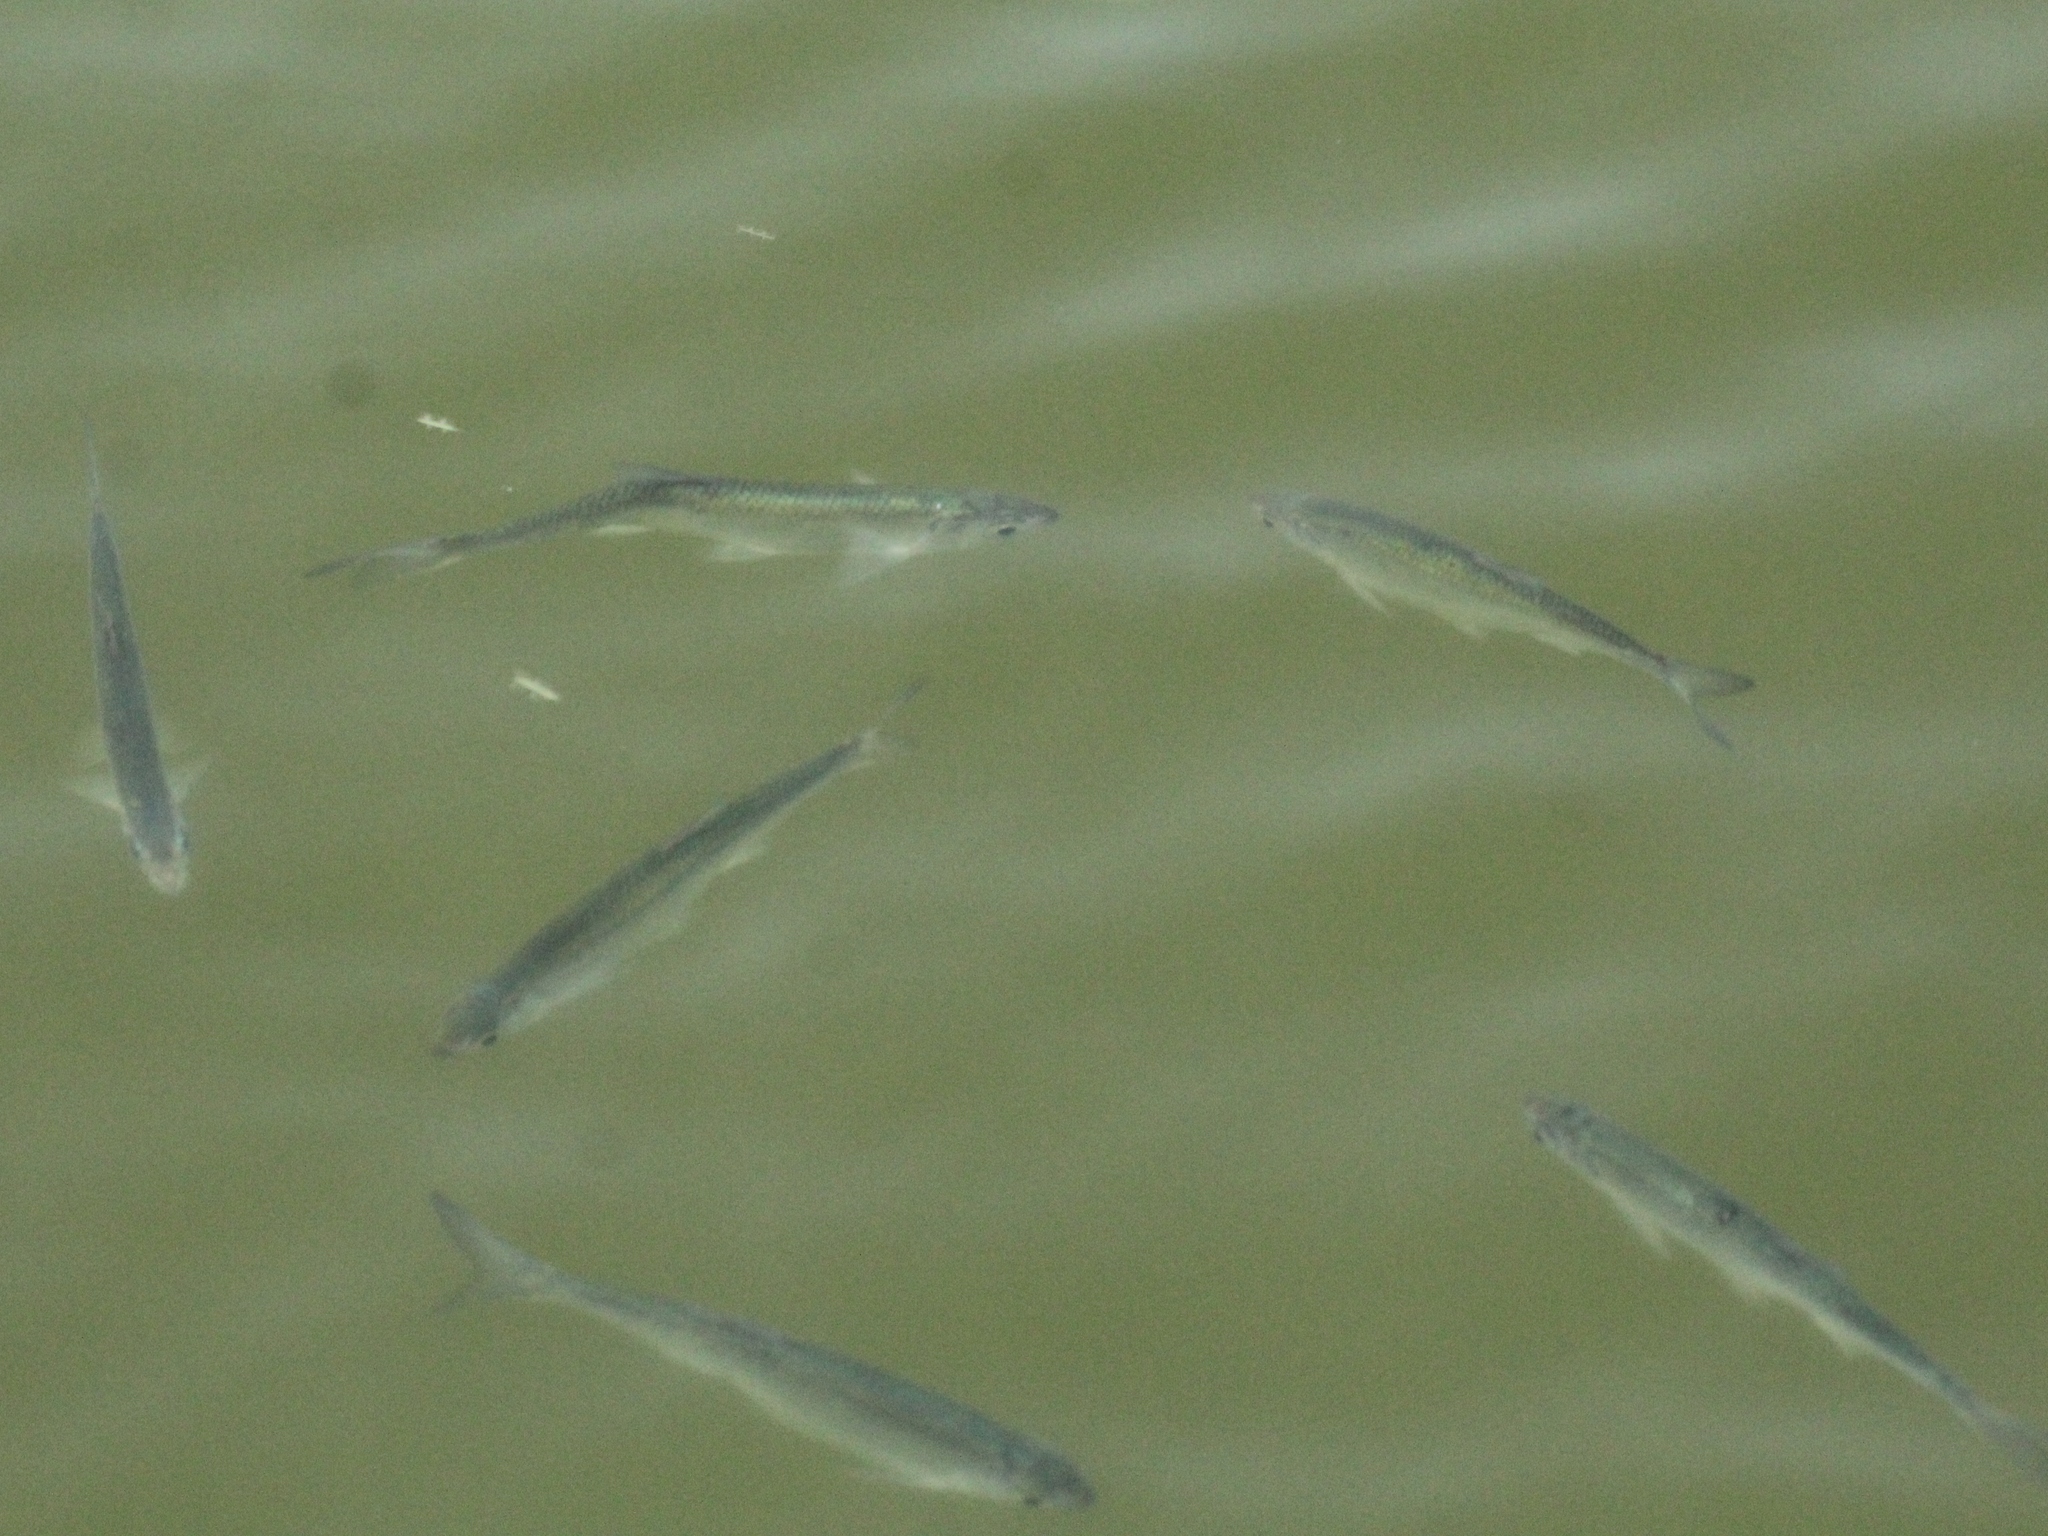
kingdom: Animalia
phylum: Chordata
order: Cypriniformes
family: Cyprinidae
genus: Alburnus
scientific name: Alburnus alburnus
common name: Bleak
